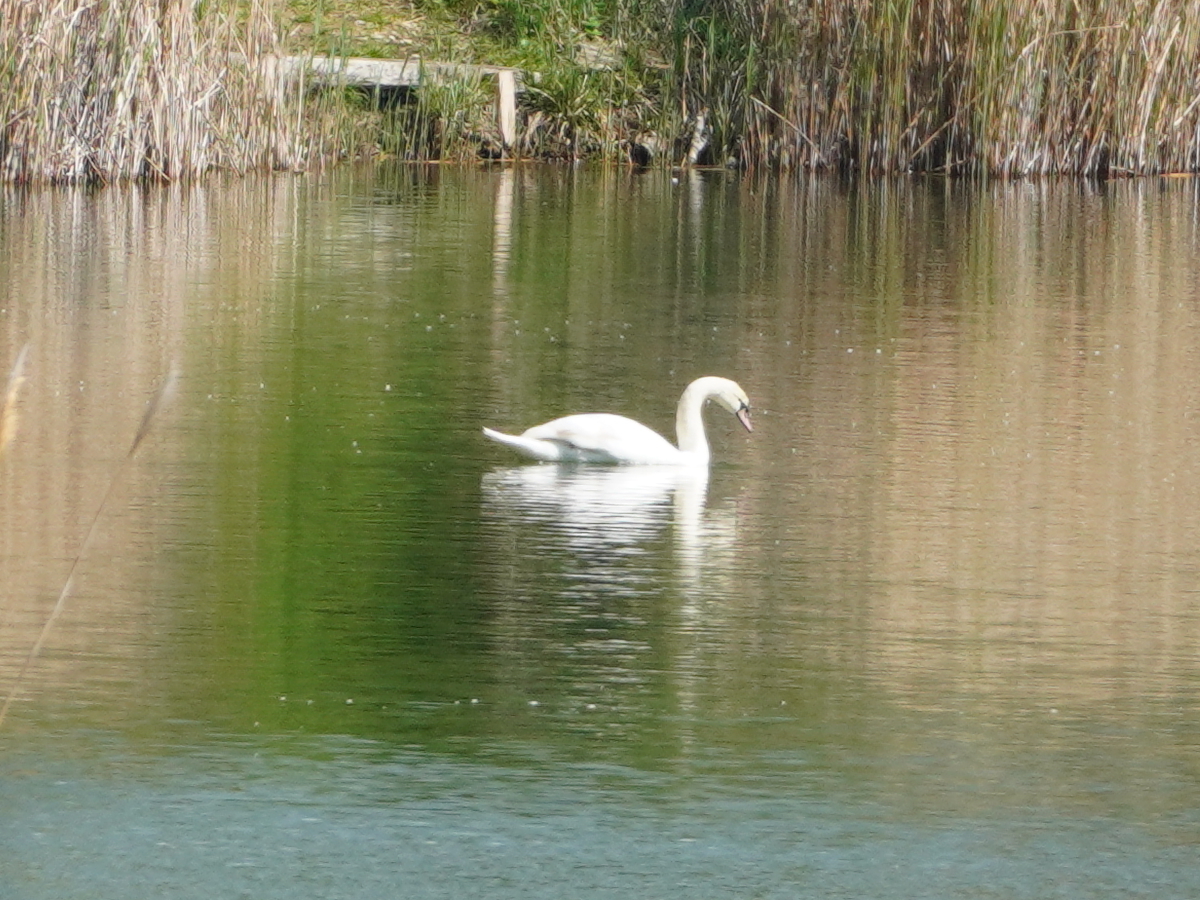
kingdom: Animalia
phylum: Chordata
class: Aves
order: Anseriformes
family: Anatidae
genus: Cygnus
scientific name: Cygnus olor
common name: Mute swan
